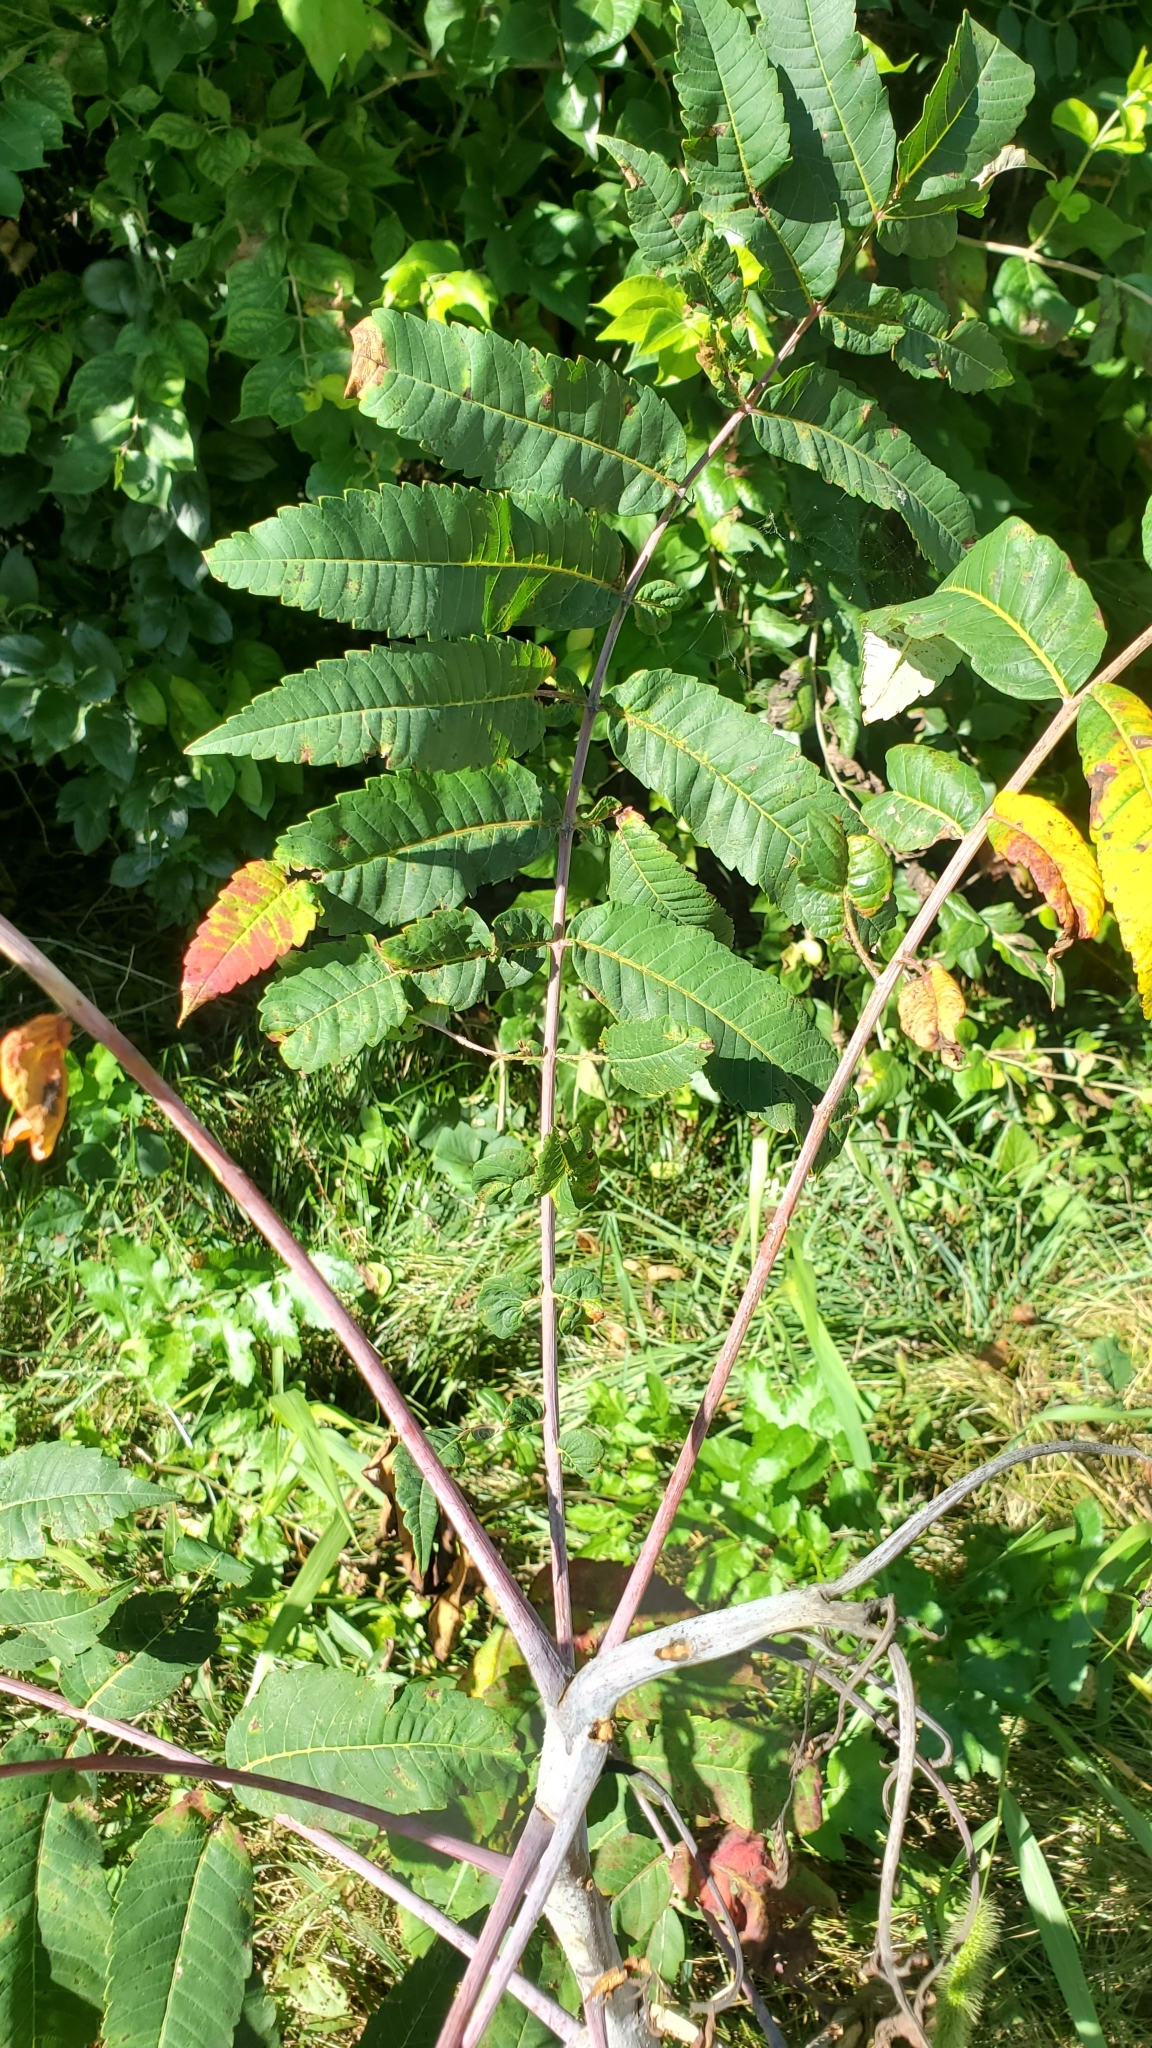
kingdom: Plantae
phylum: Tracheophyta
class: Magnoliopsida
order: Sapindales
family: Anacardiaceae
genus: Rhus
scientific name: Rhus glabra
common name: Scarlet sumac
